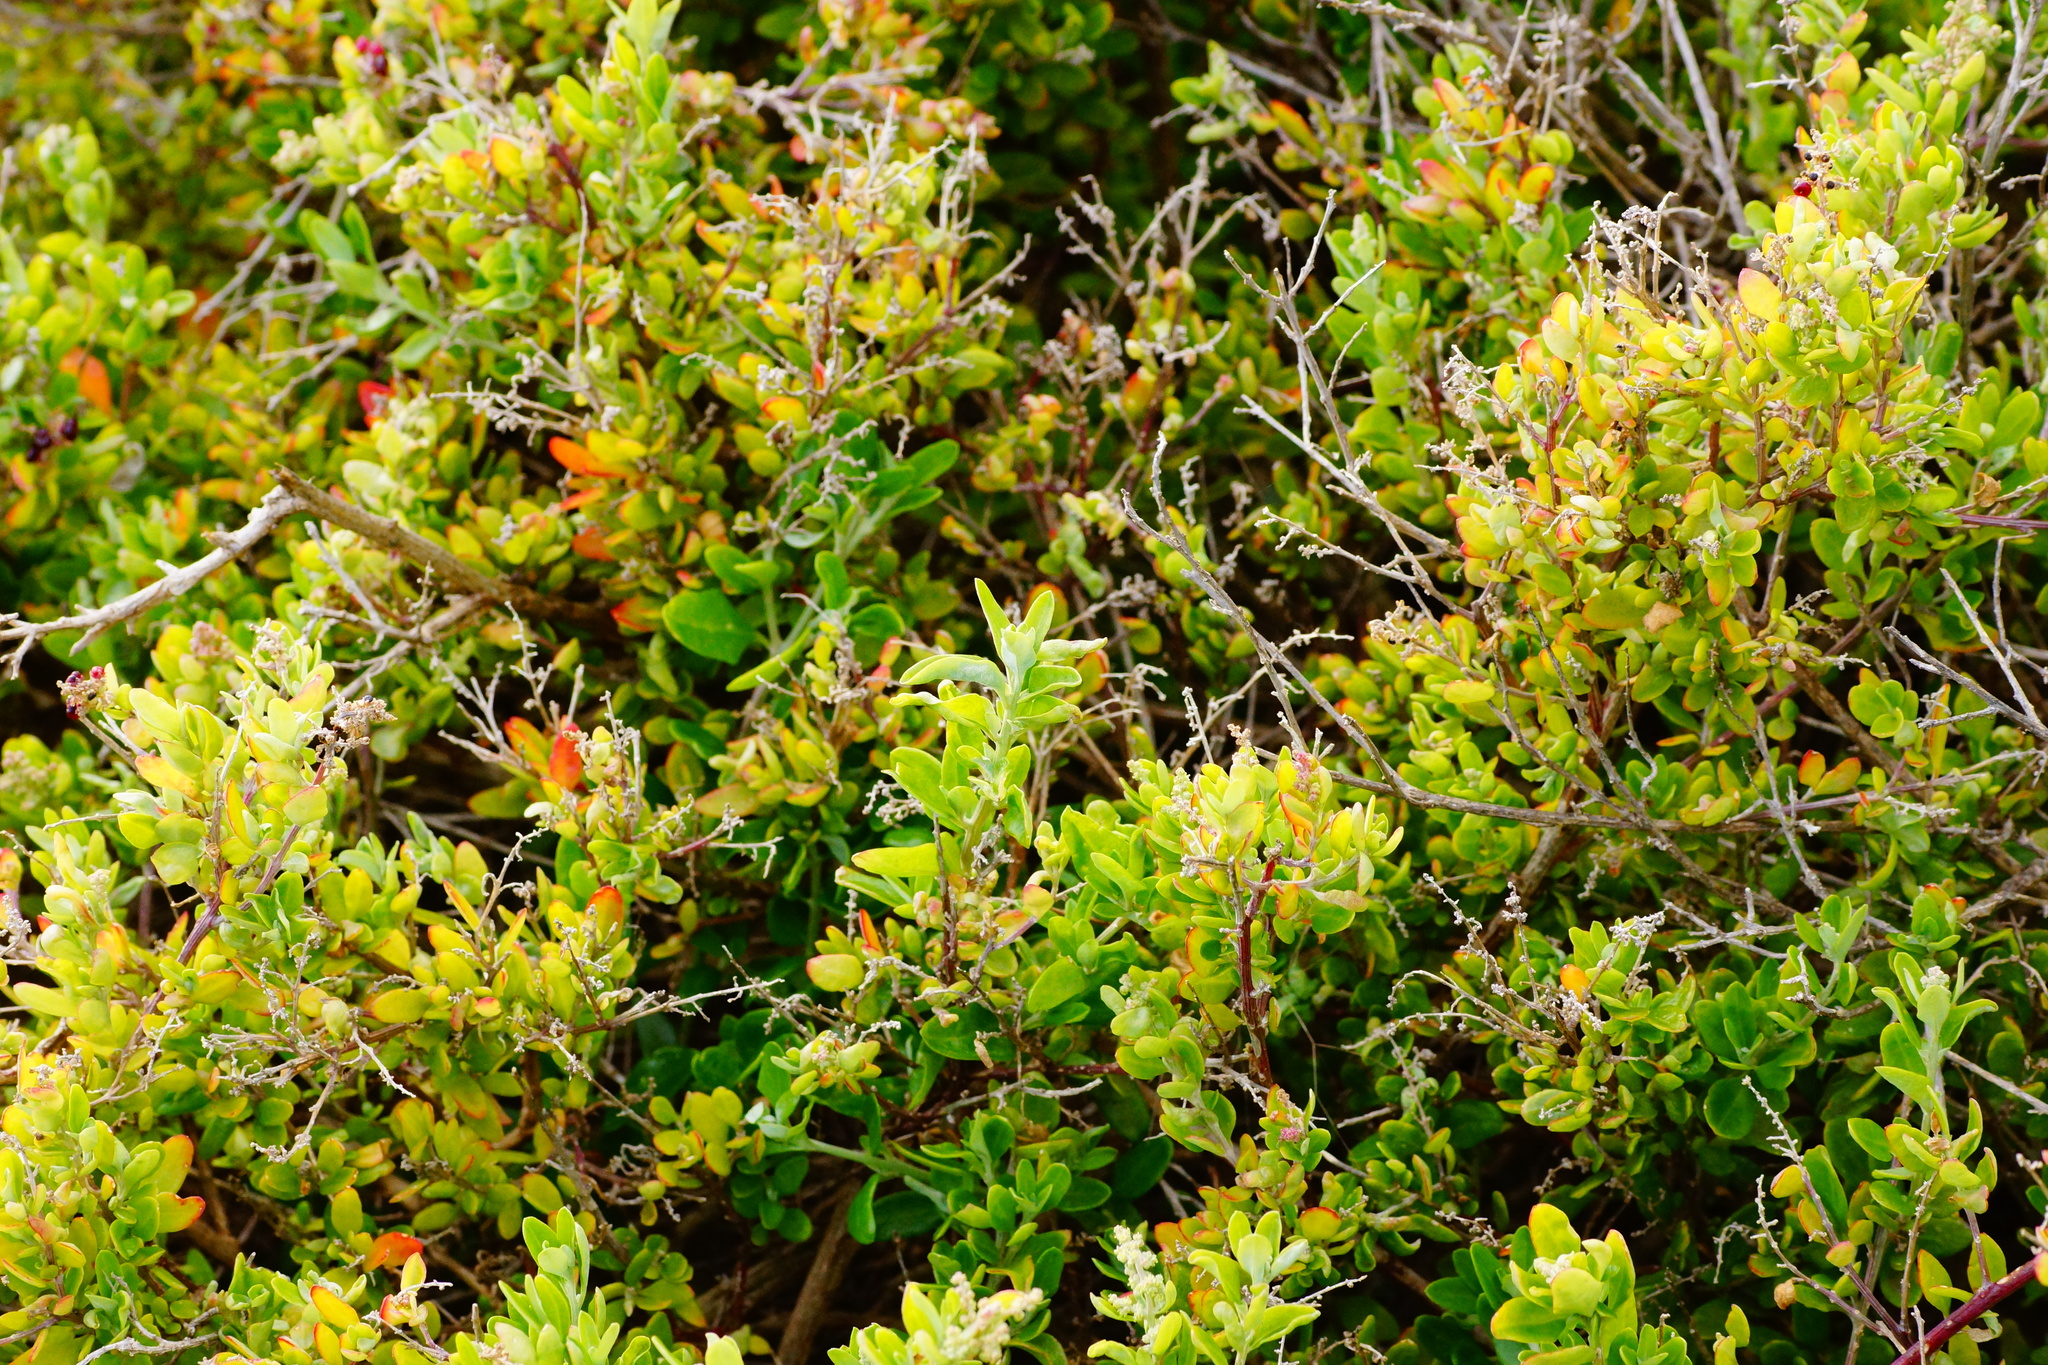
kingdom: Plantae
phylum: Tracheophyta
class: Magnoliopsida
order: Caryophyllales
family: Amaranthaceae
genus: Chenopodium
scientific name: Chenopodium candolleanum
